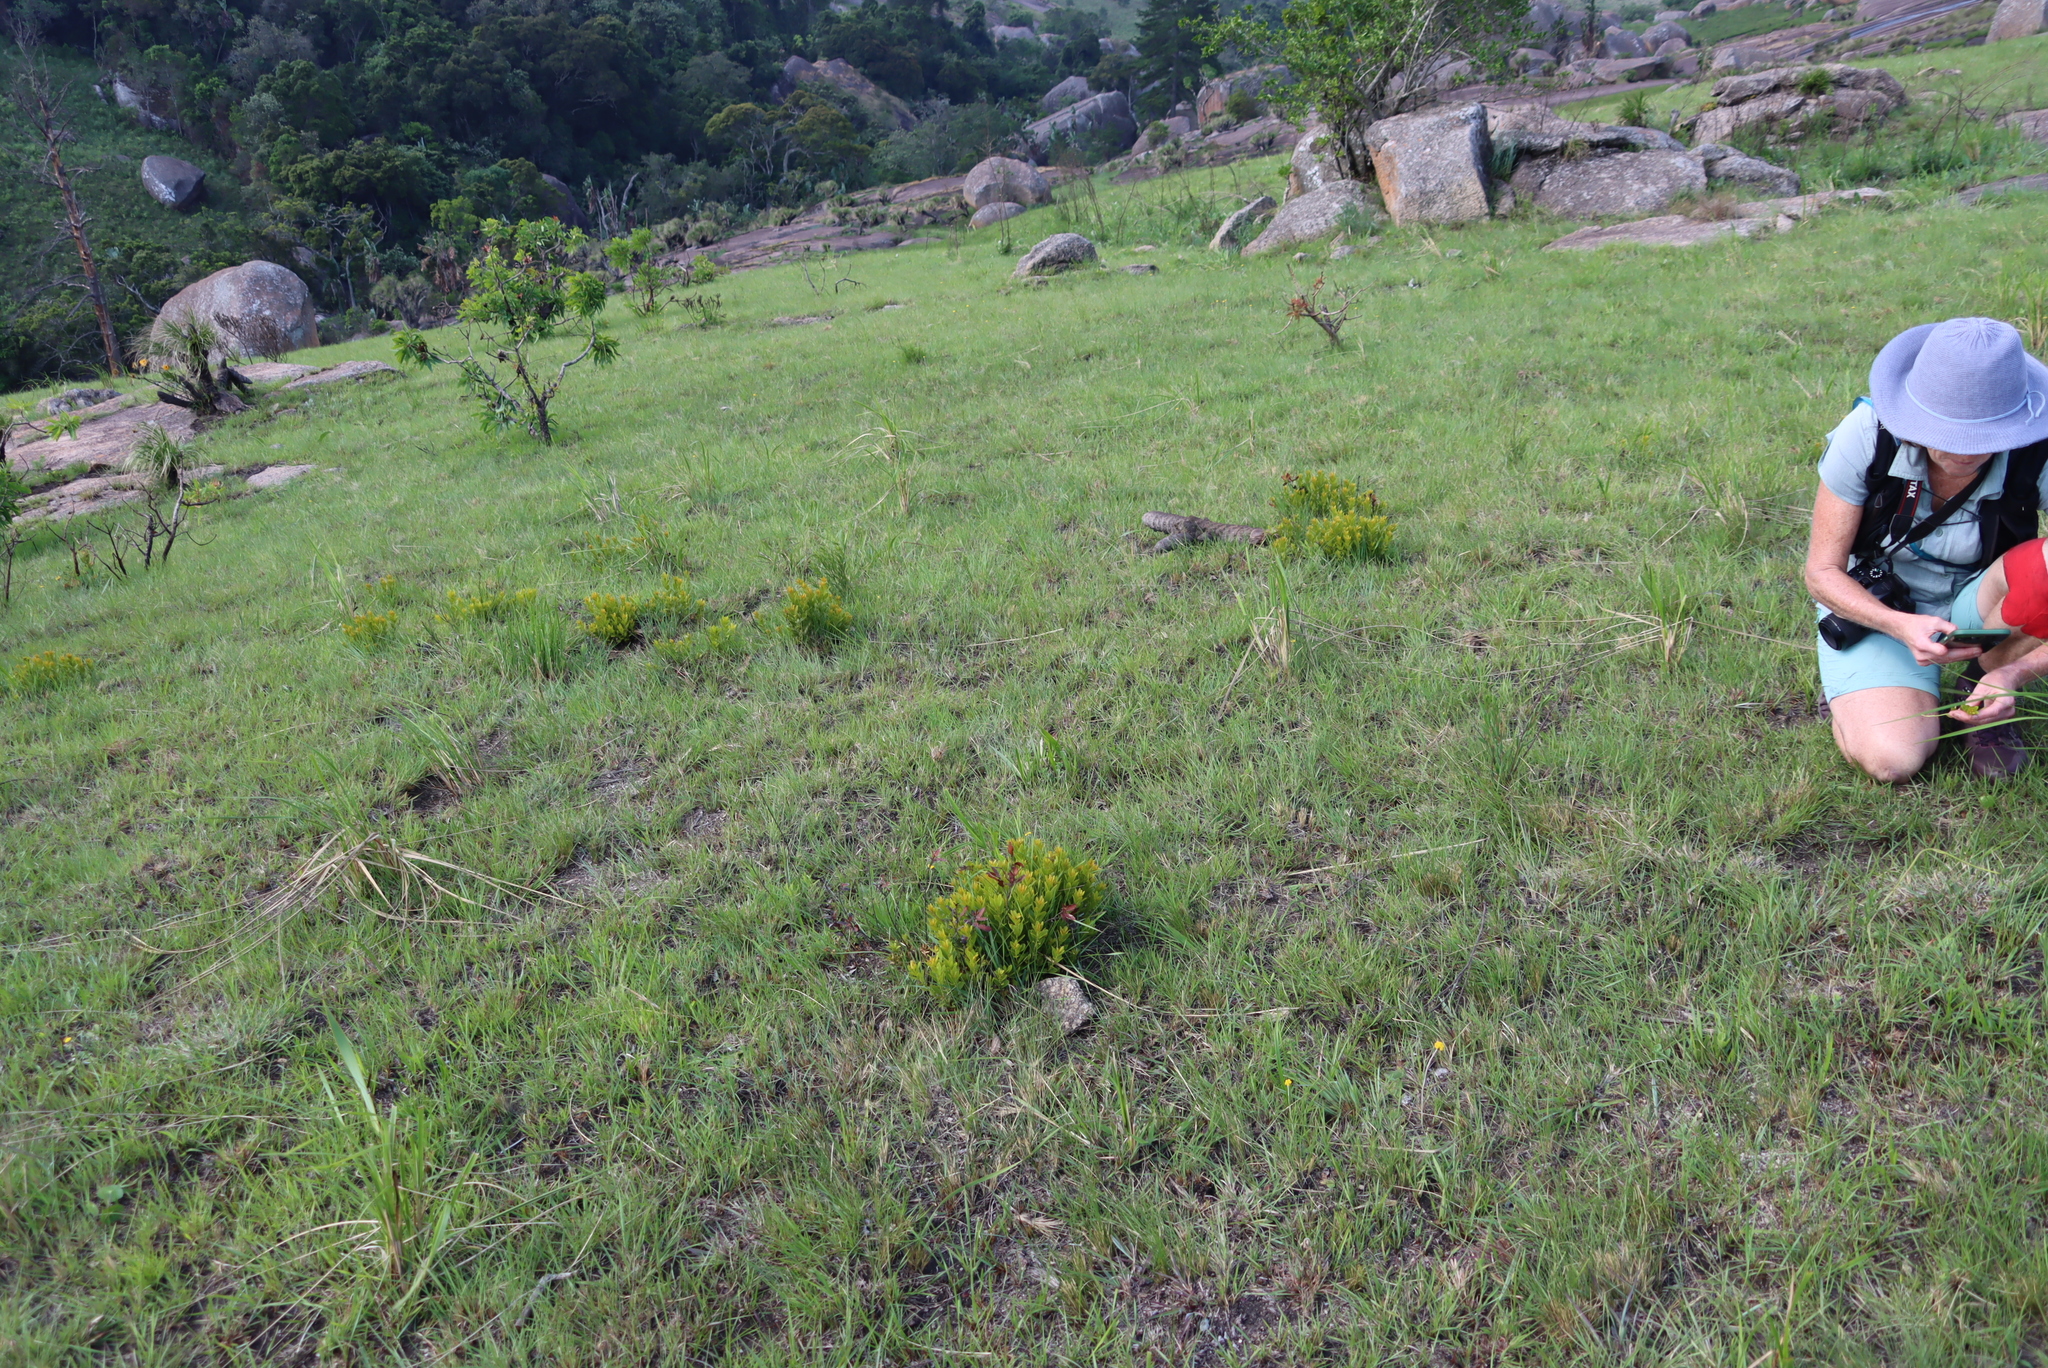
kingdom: Plantae
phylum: Tracheophyta
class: Magnoliopsida
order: Fagales
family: Myricaceae
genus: Morella
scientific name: Morella brevifolia
